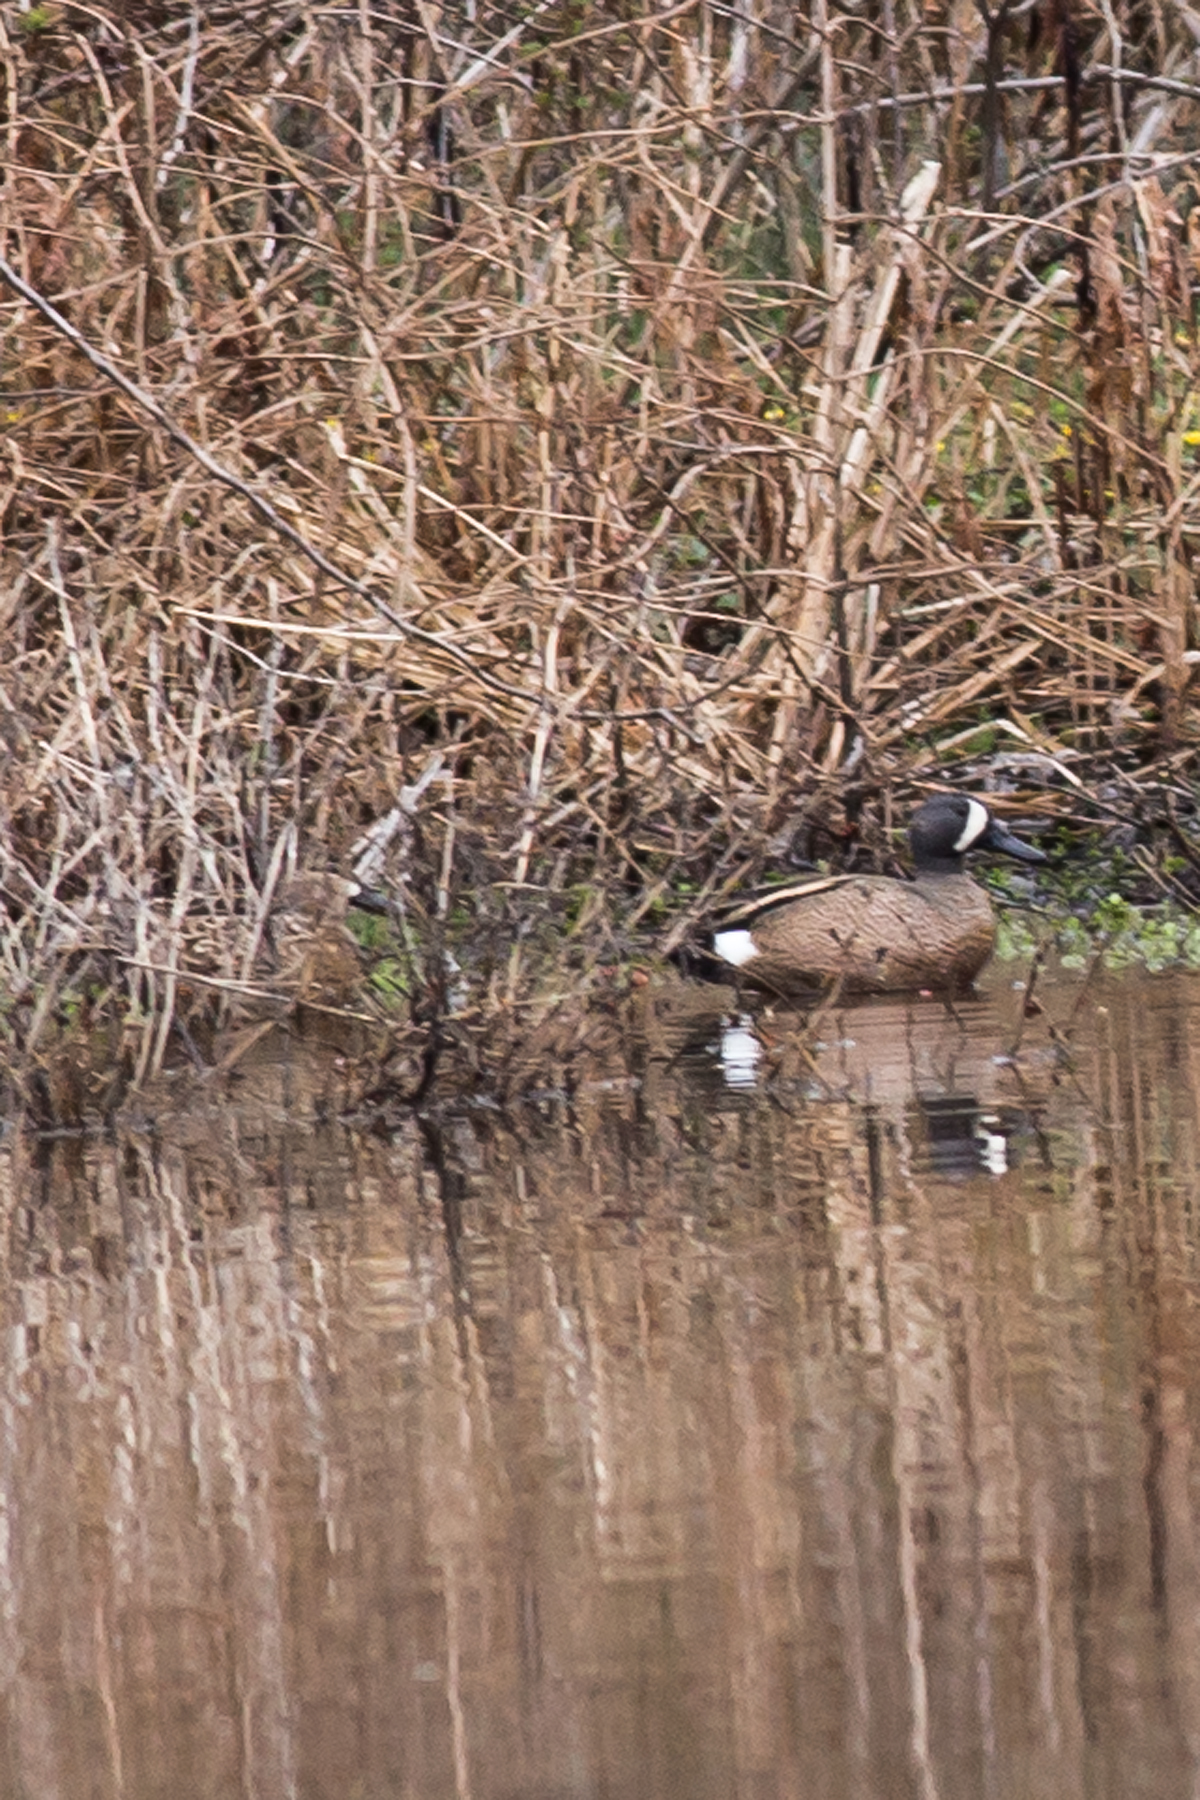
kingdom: Animalia
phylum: Chordata
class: Aves
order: Anseriformes
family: Anatidae
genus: Spatula
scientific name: Spatula discors
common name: Blue-winged teal
